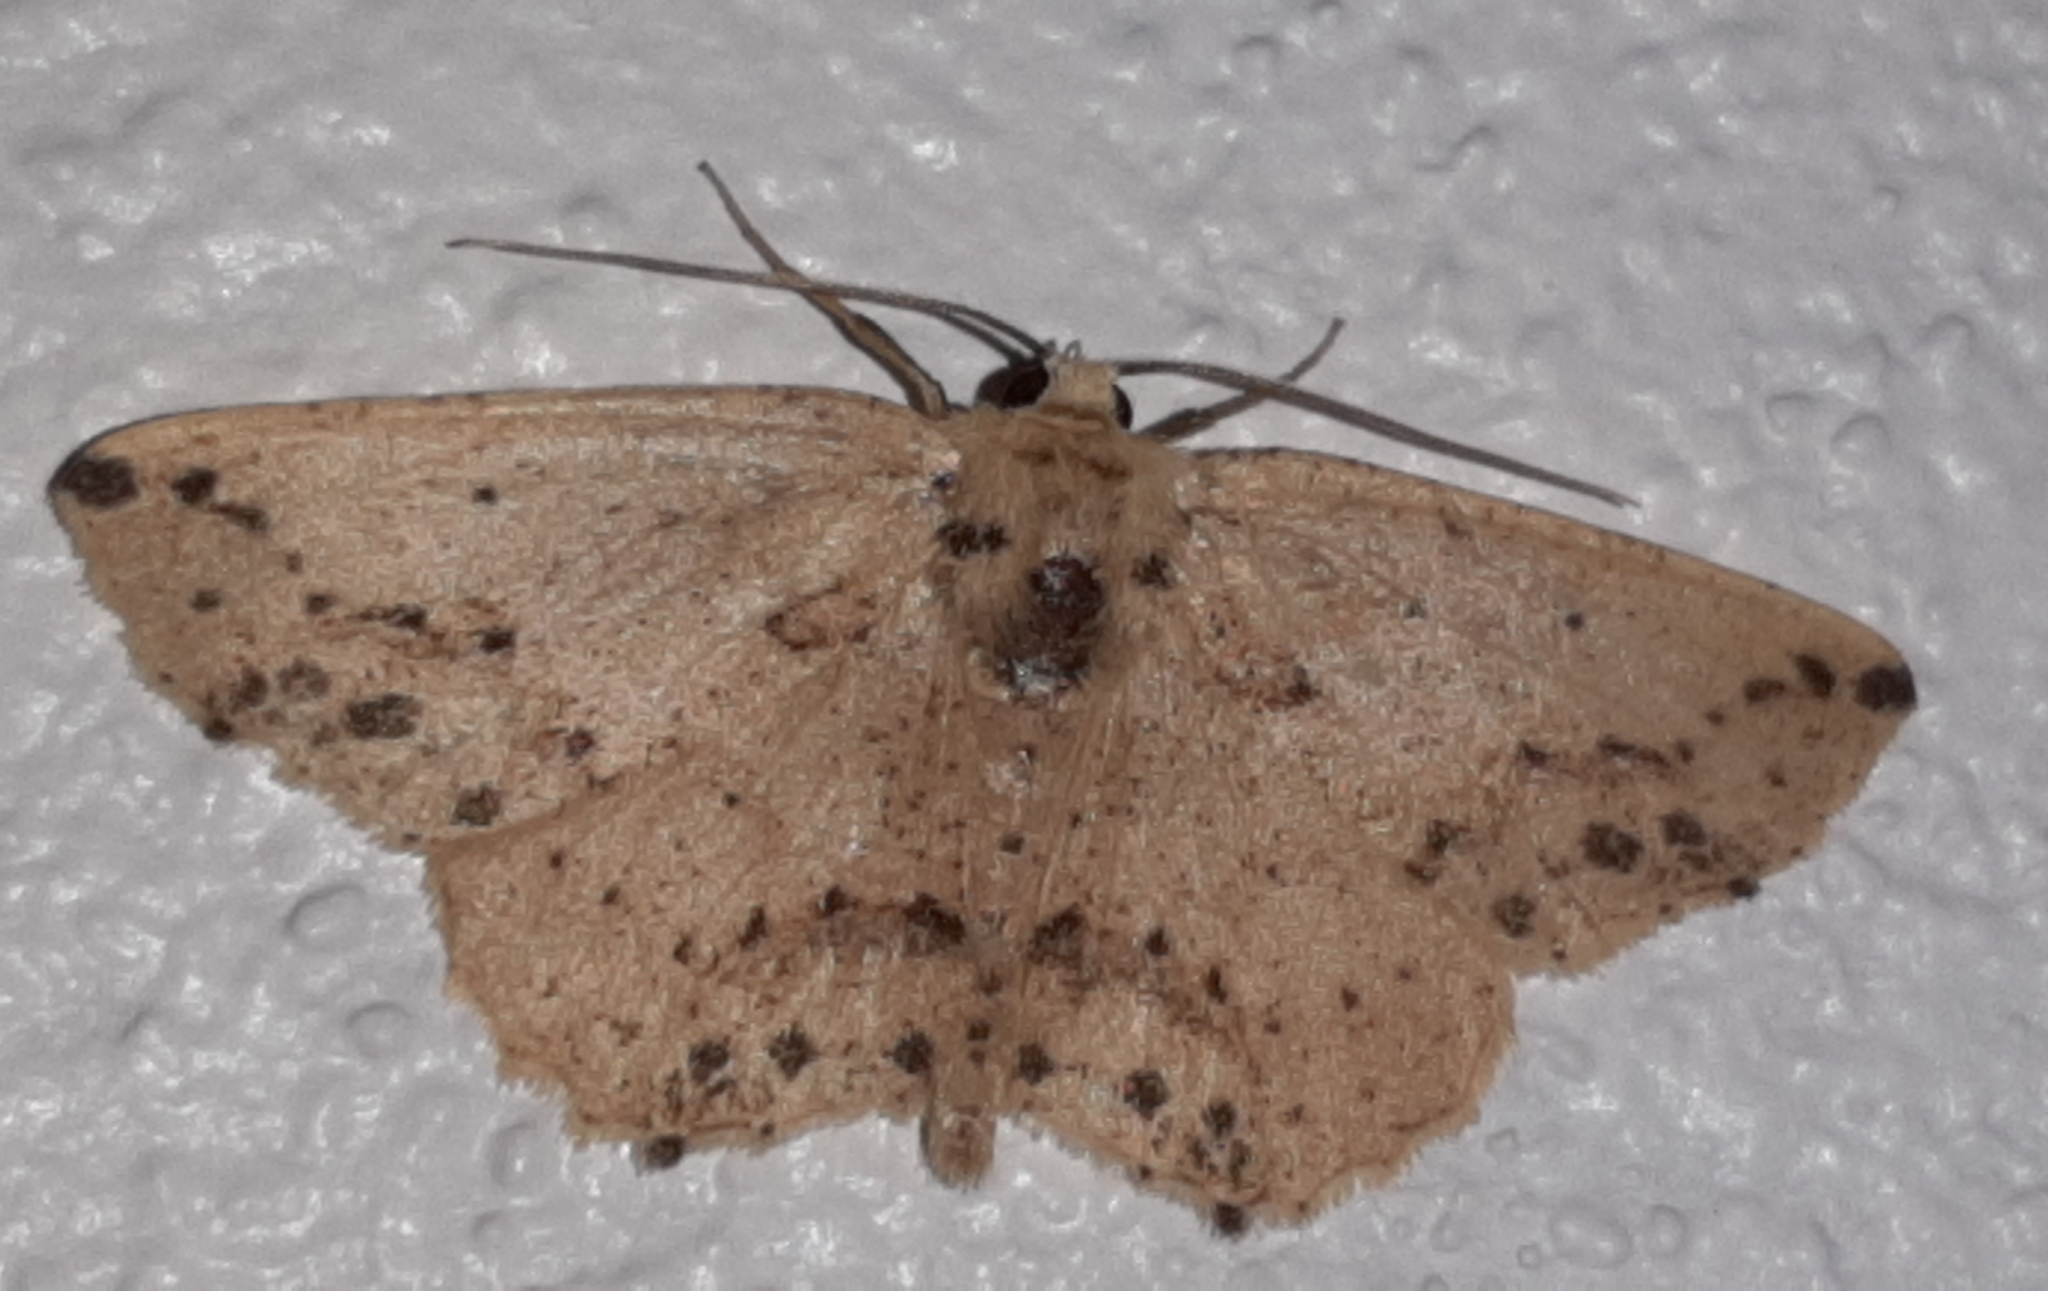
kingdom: Animalia
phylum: Arthropoda
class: Insecta
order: Lepidoptera
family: Geometridae
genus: Isochromodes
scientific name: Isochromodes bellona
